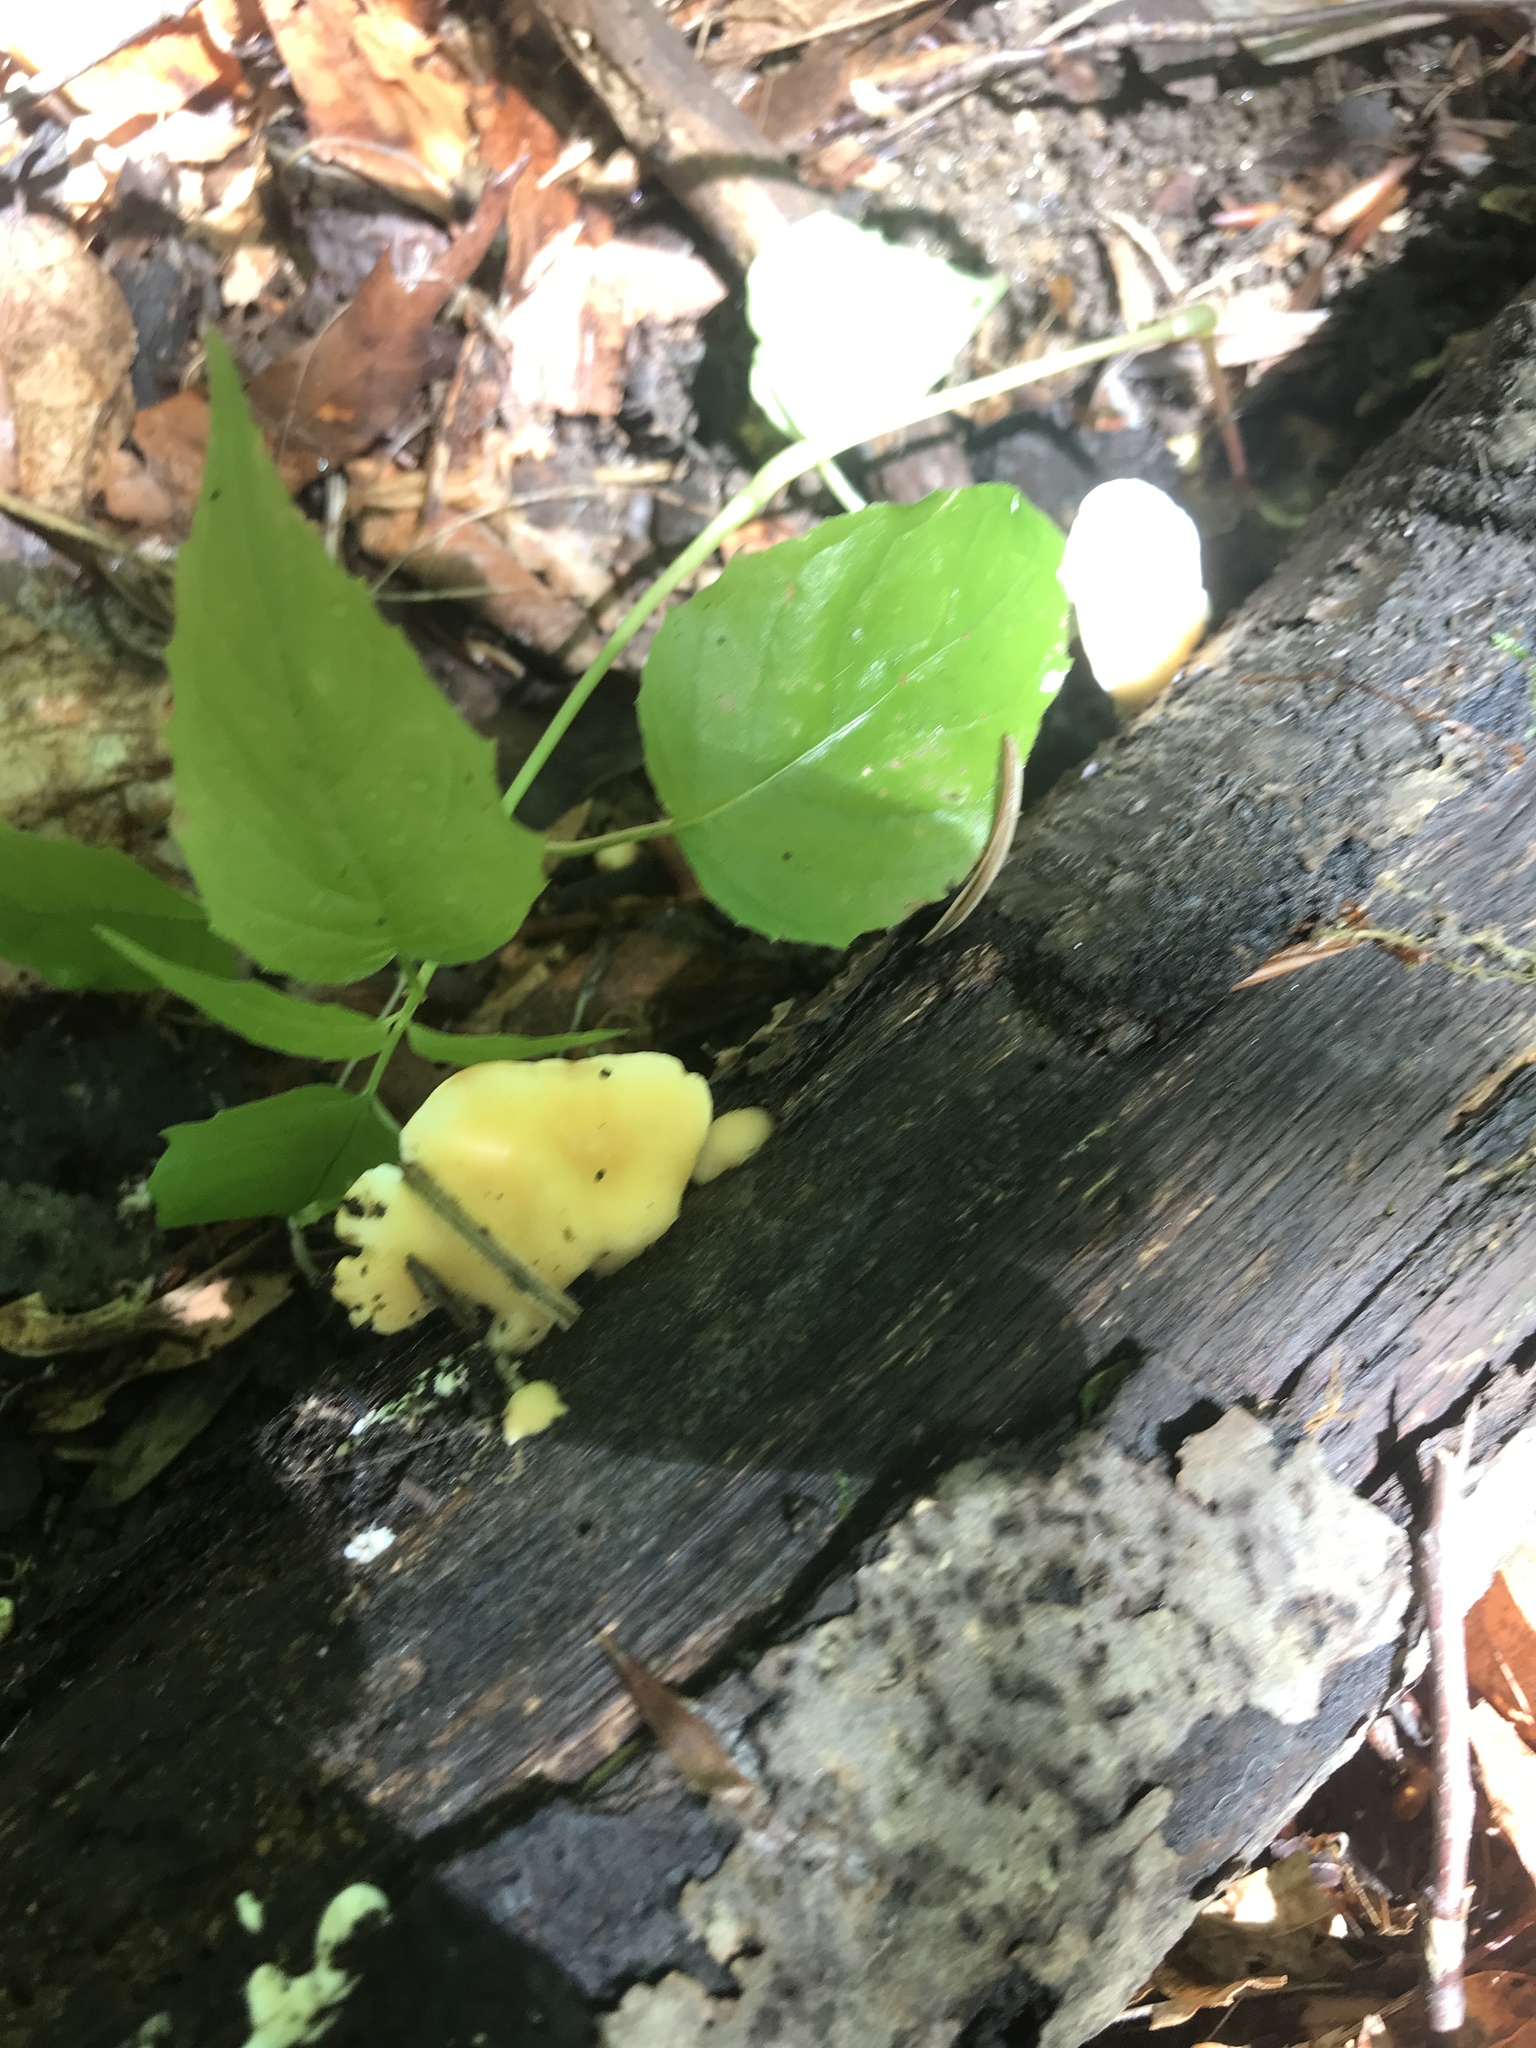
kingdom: Fungi
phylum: Basidiomycota
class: Agaricomycetes
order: Polyporales
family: Steccherinaceae
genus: Loweomyces
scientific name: Loweomyces fractipes
